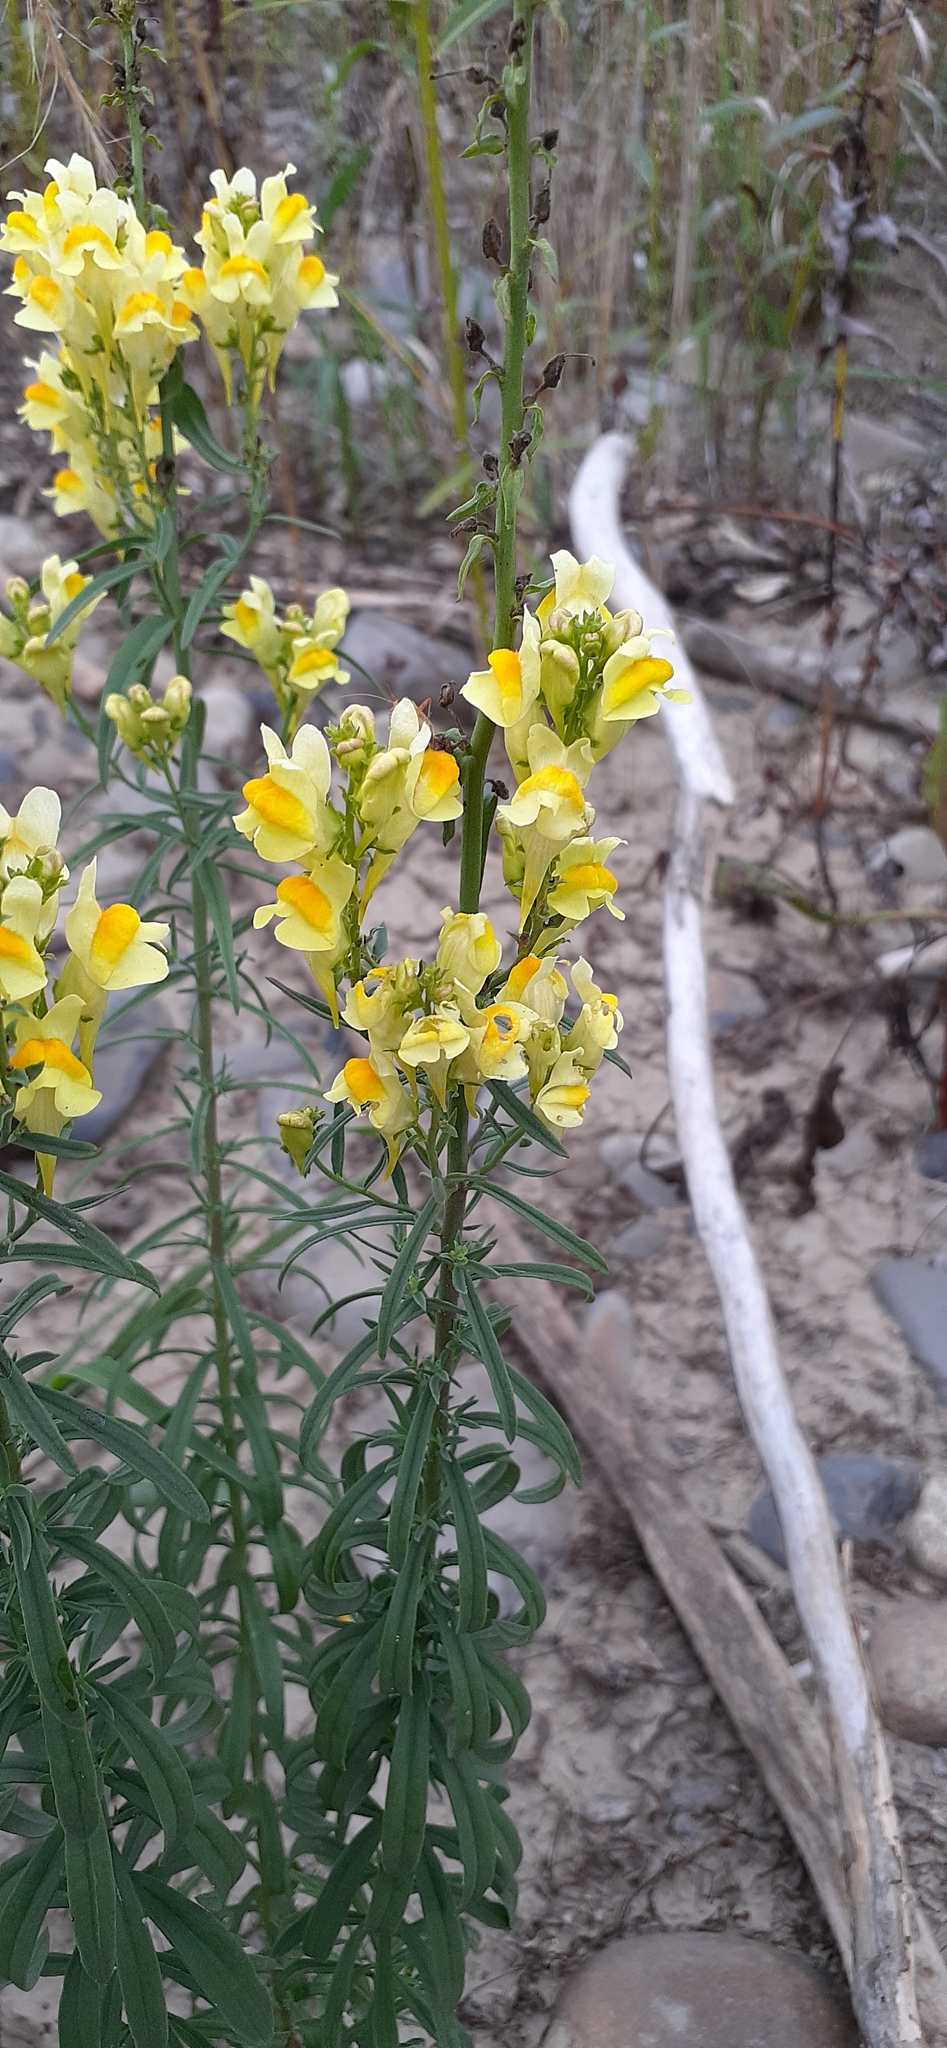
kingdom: Plantae
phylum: Tracheophyta
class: Magnoliopsida
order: Lamiales
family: Plantaginaceae
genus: Linaria
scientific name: Linaria vulgaris
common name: Butter and eggs
